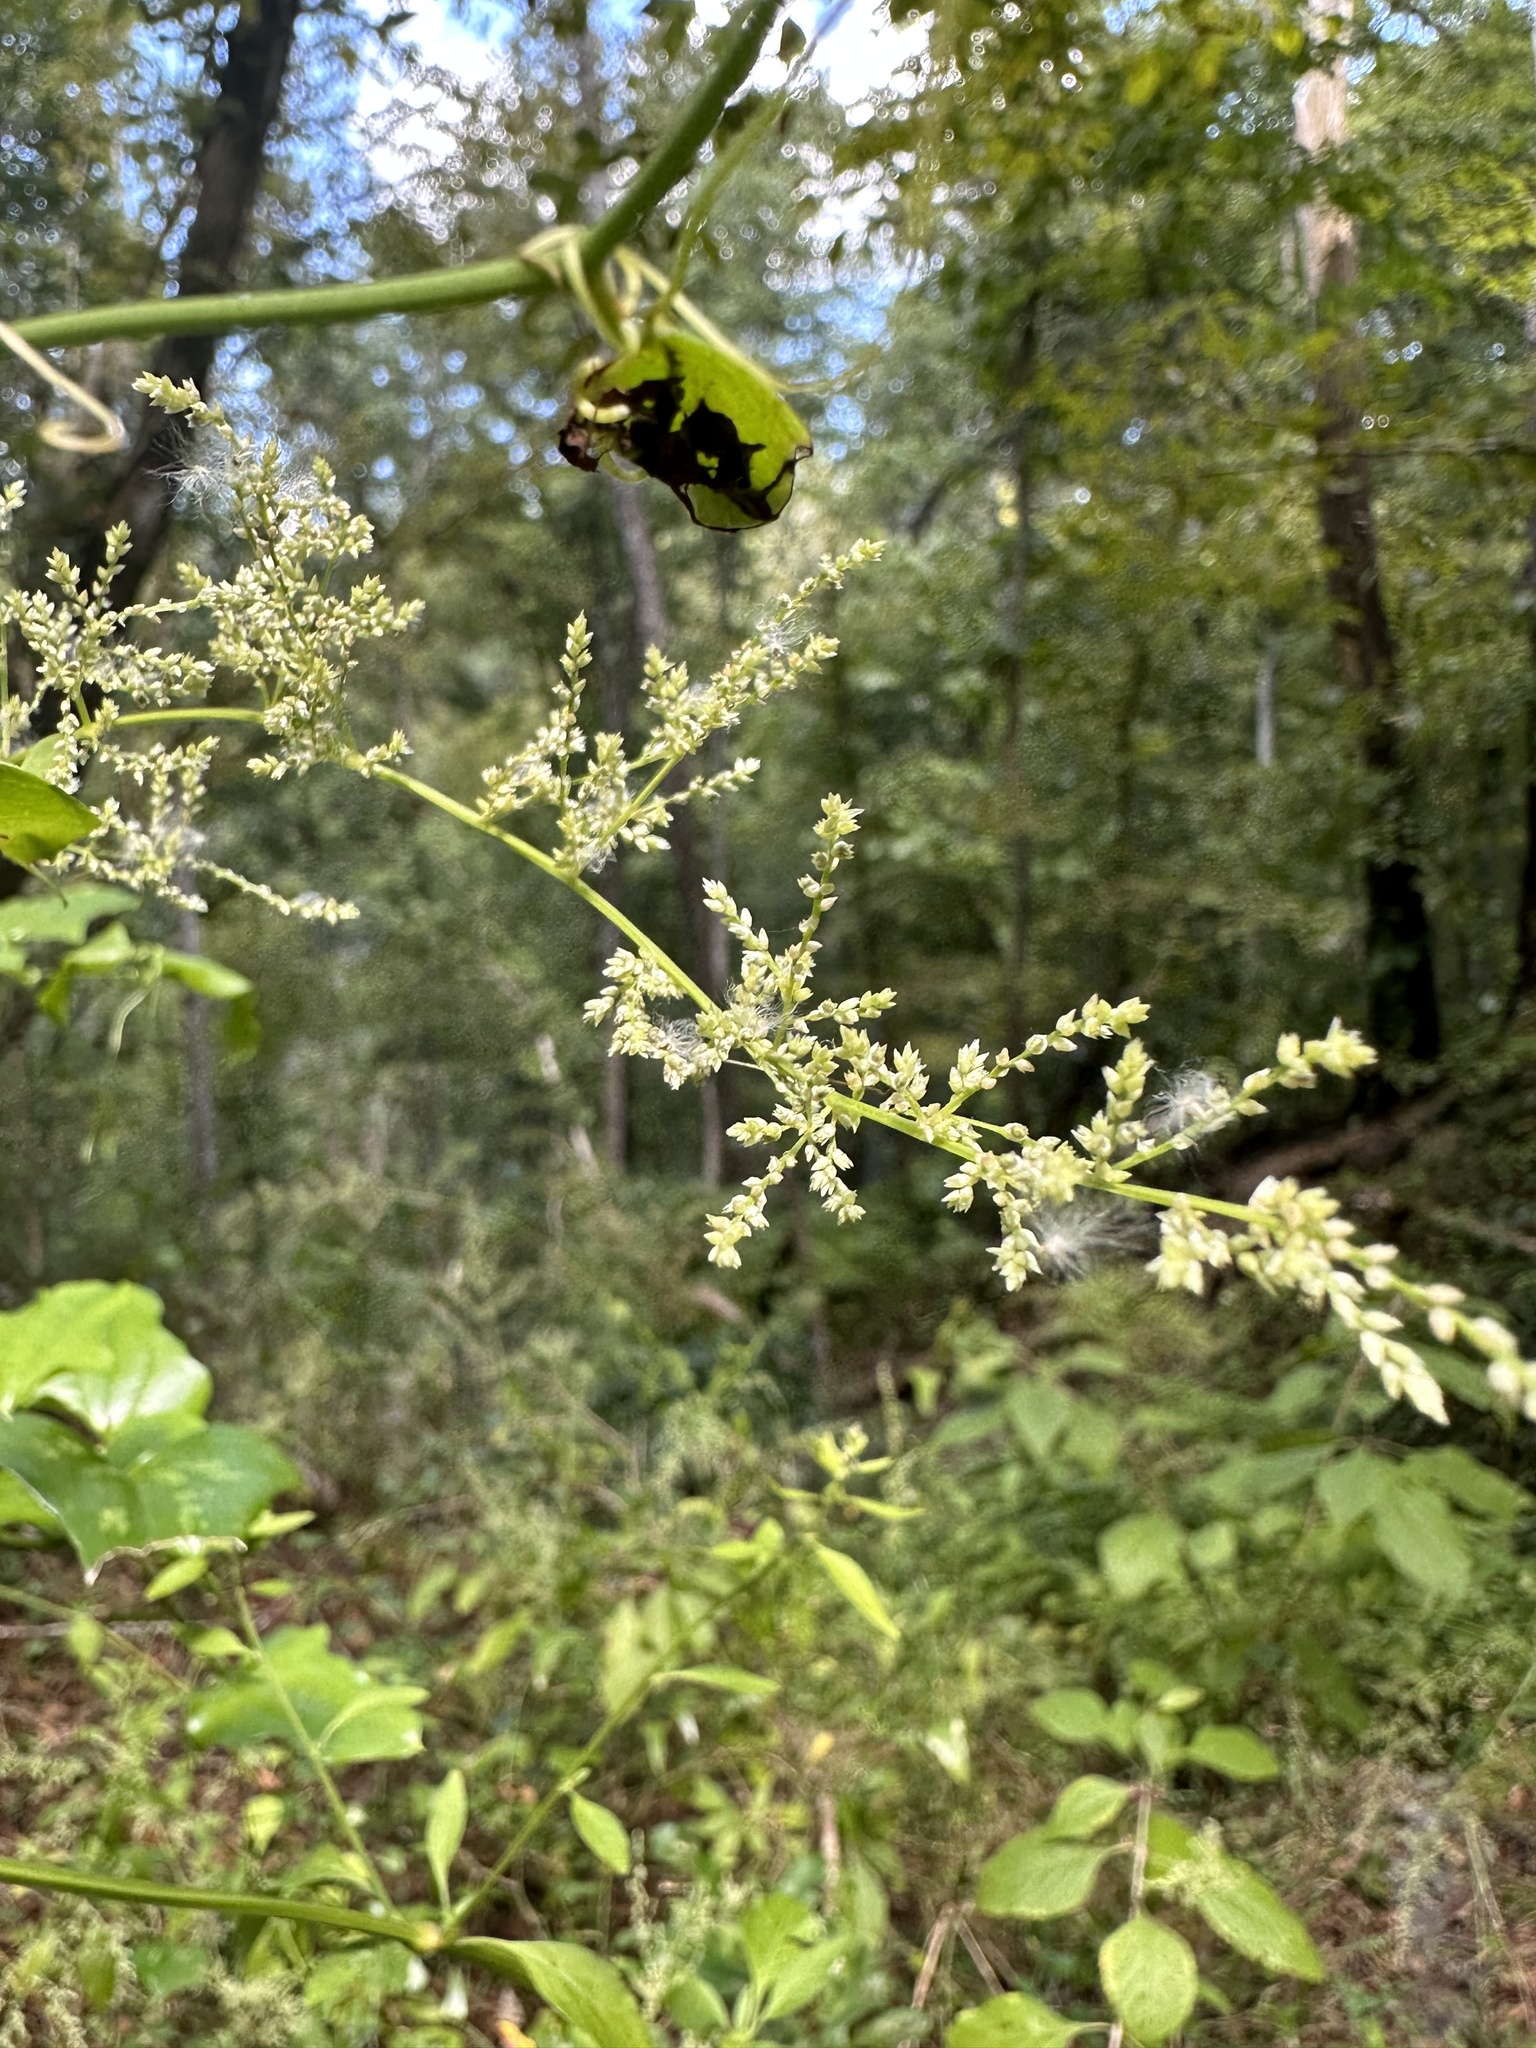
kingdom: Plantae
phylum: Tracheophyta
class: Magnoliopsida
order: Caryophyllales
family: Amaranthaceae
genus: Iresine
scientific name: Iresine diffusa
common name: Juba's-bush
